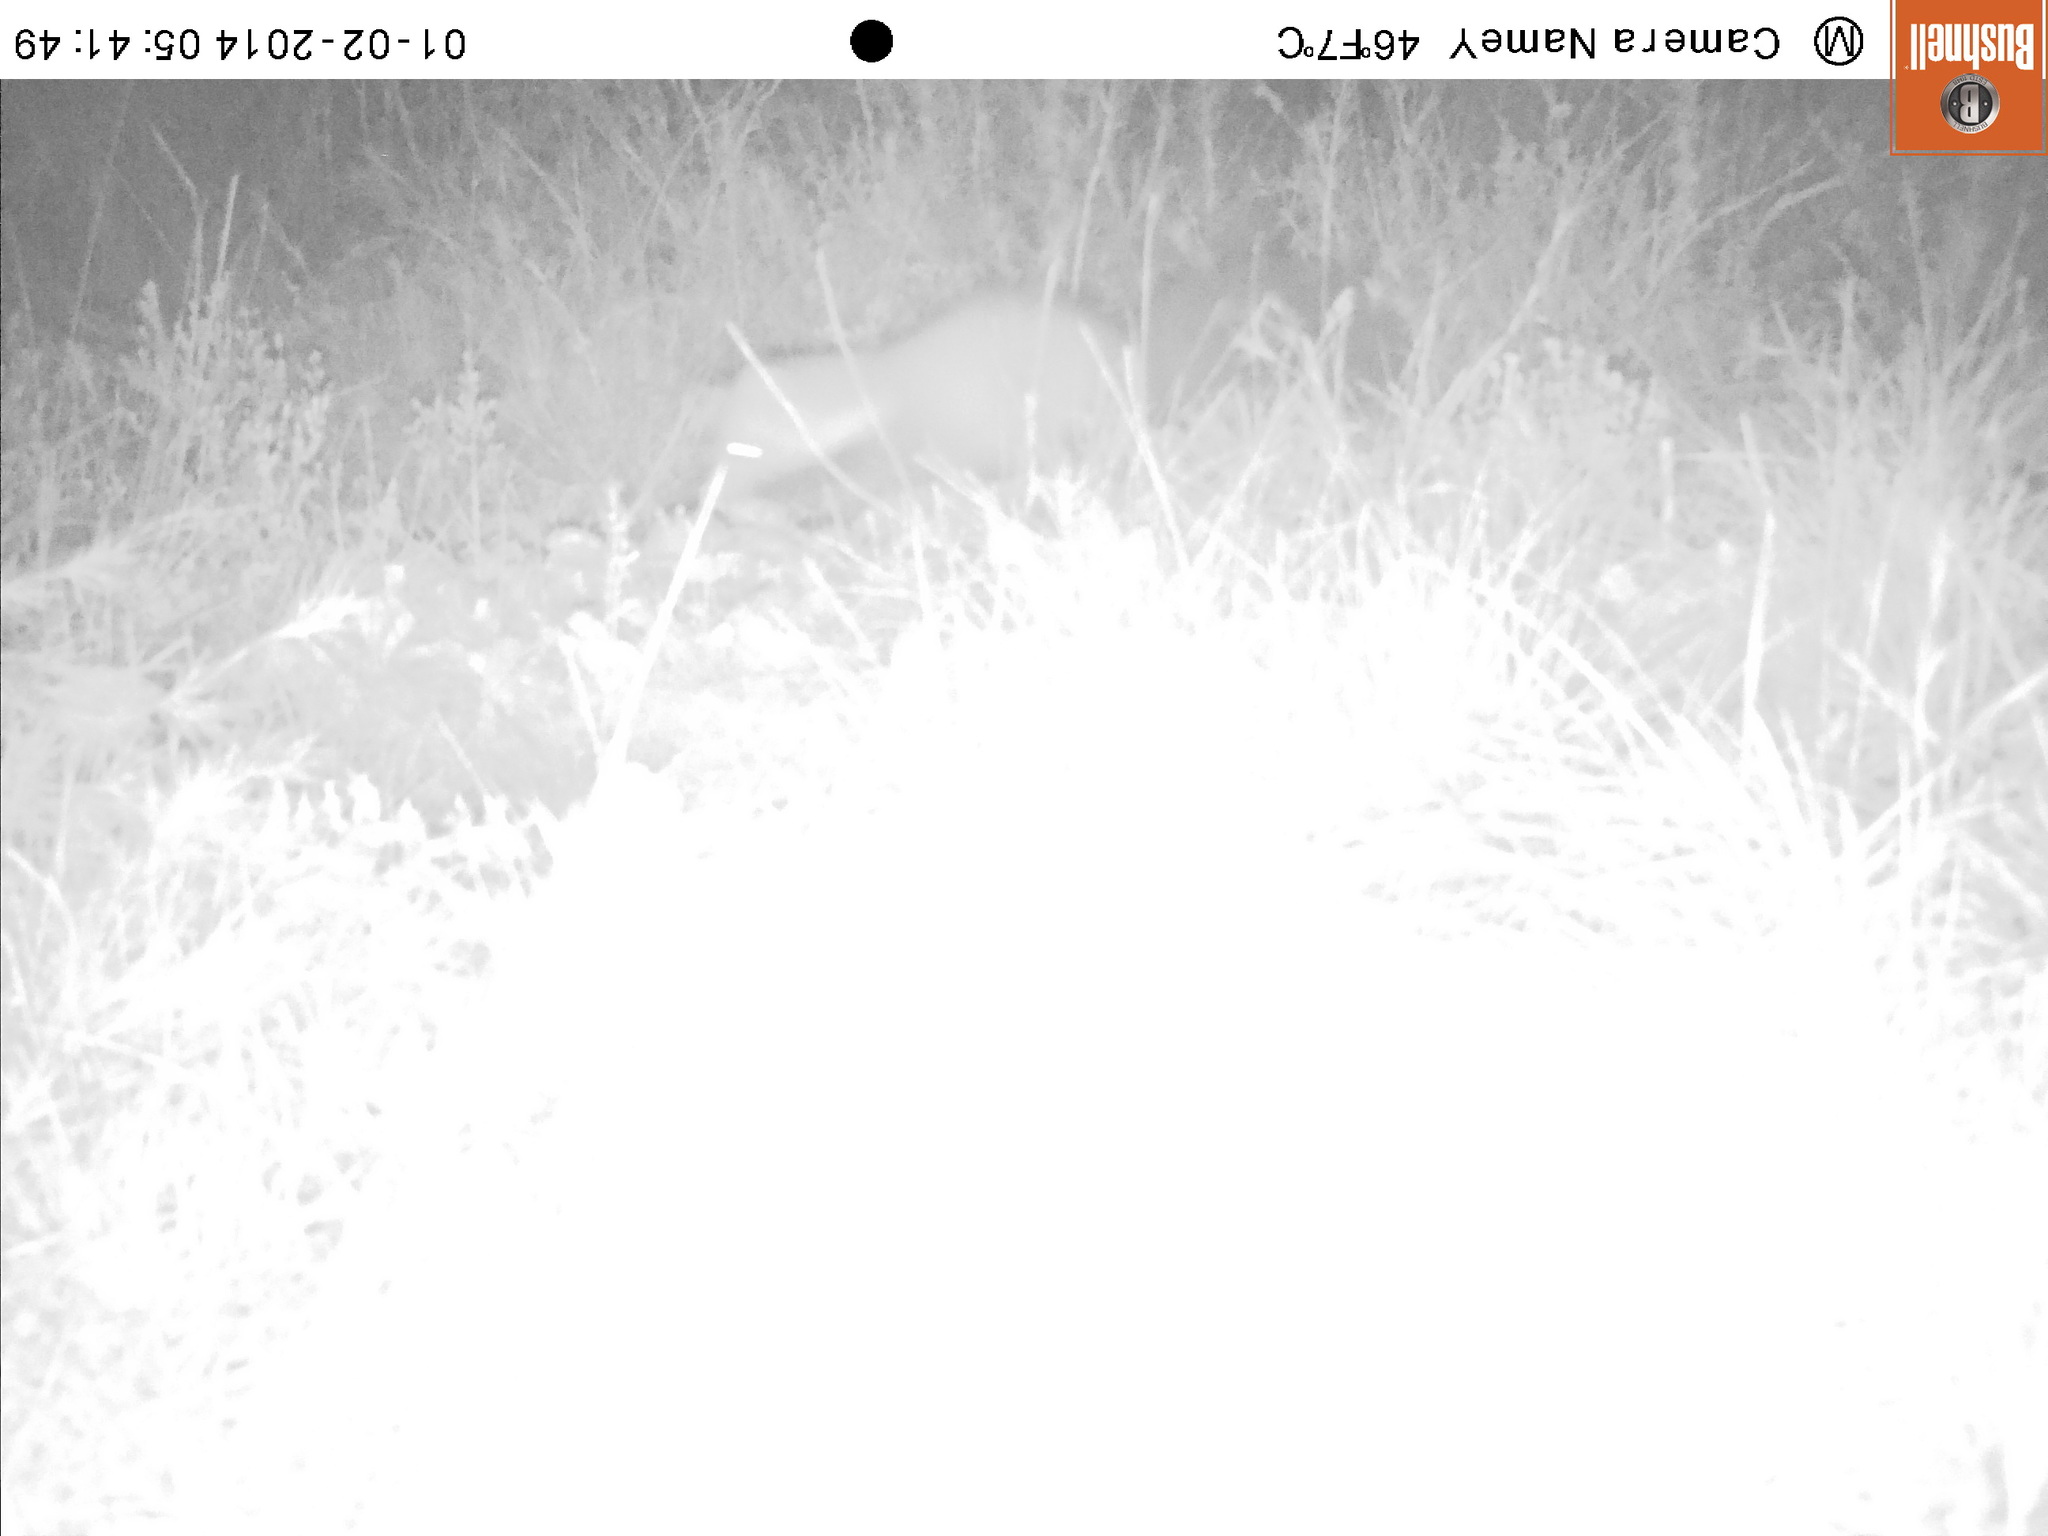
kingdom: Animalia
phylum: Chordata
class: Mammalia
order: Carnivora
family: Mustelidae
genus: Martes
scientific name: Martes foina
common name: Beech marten
